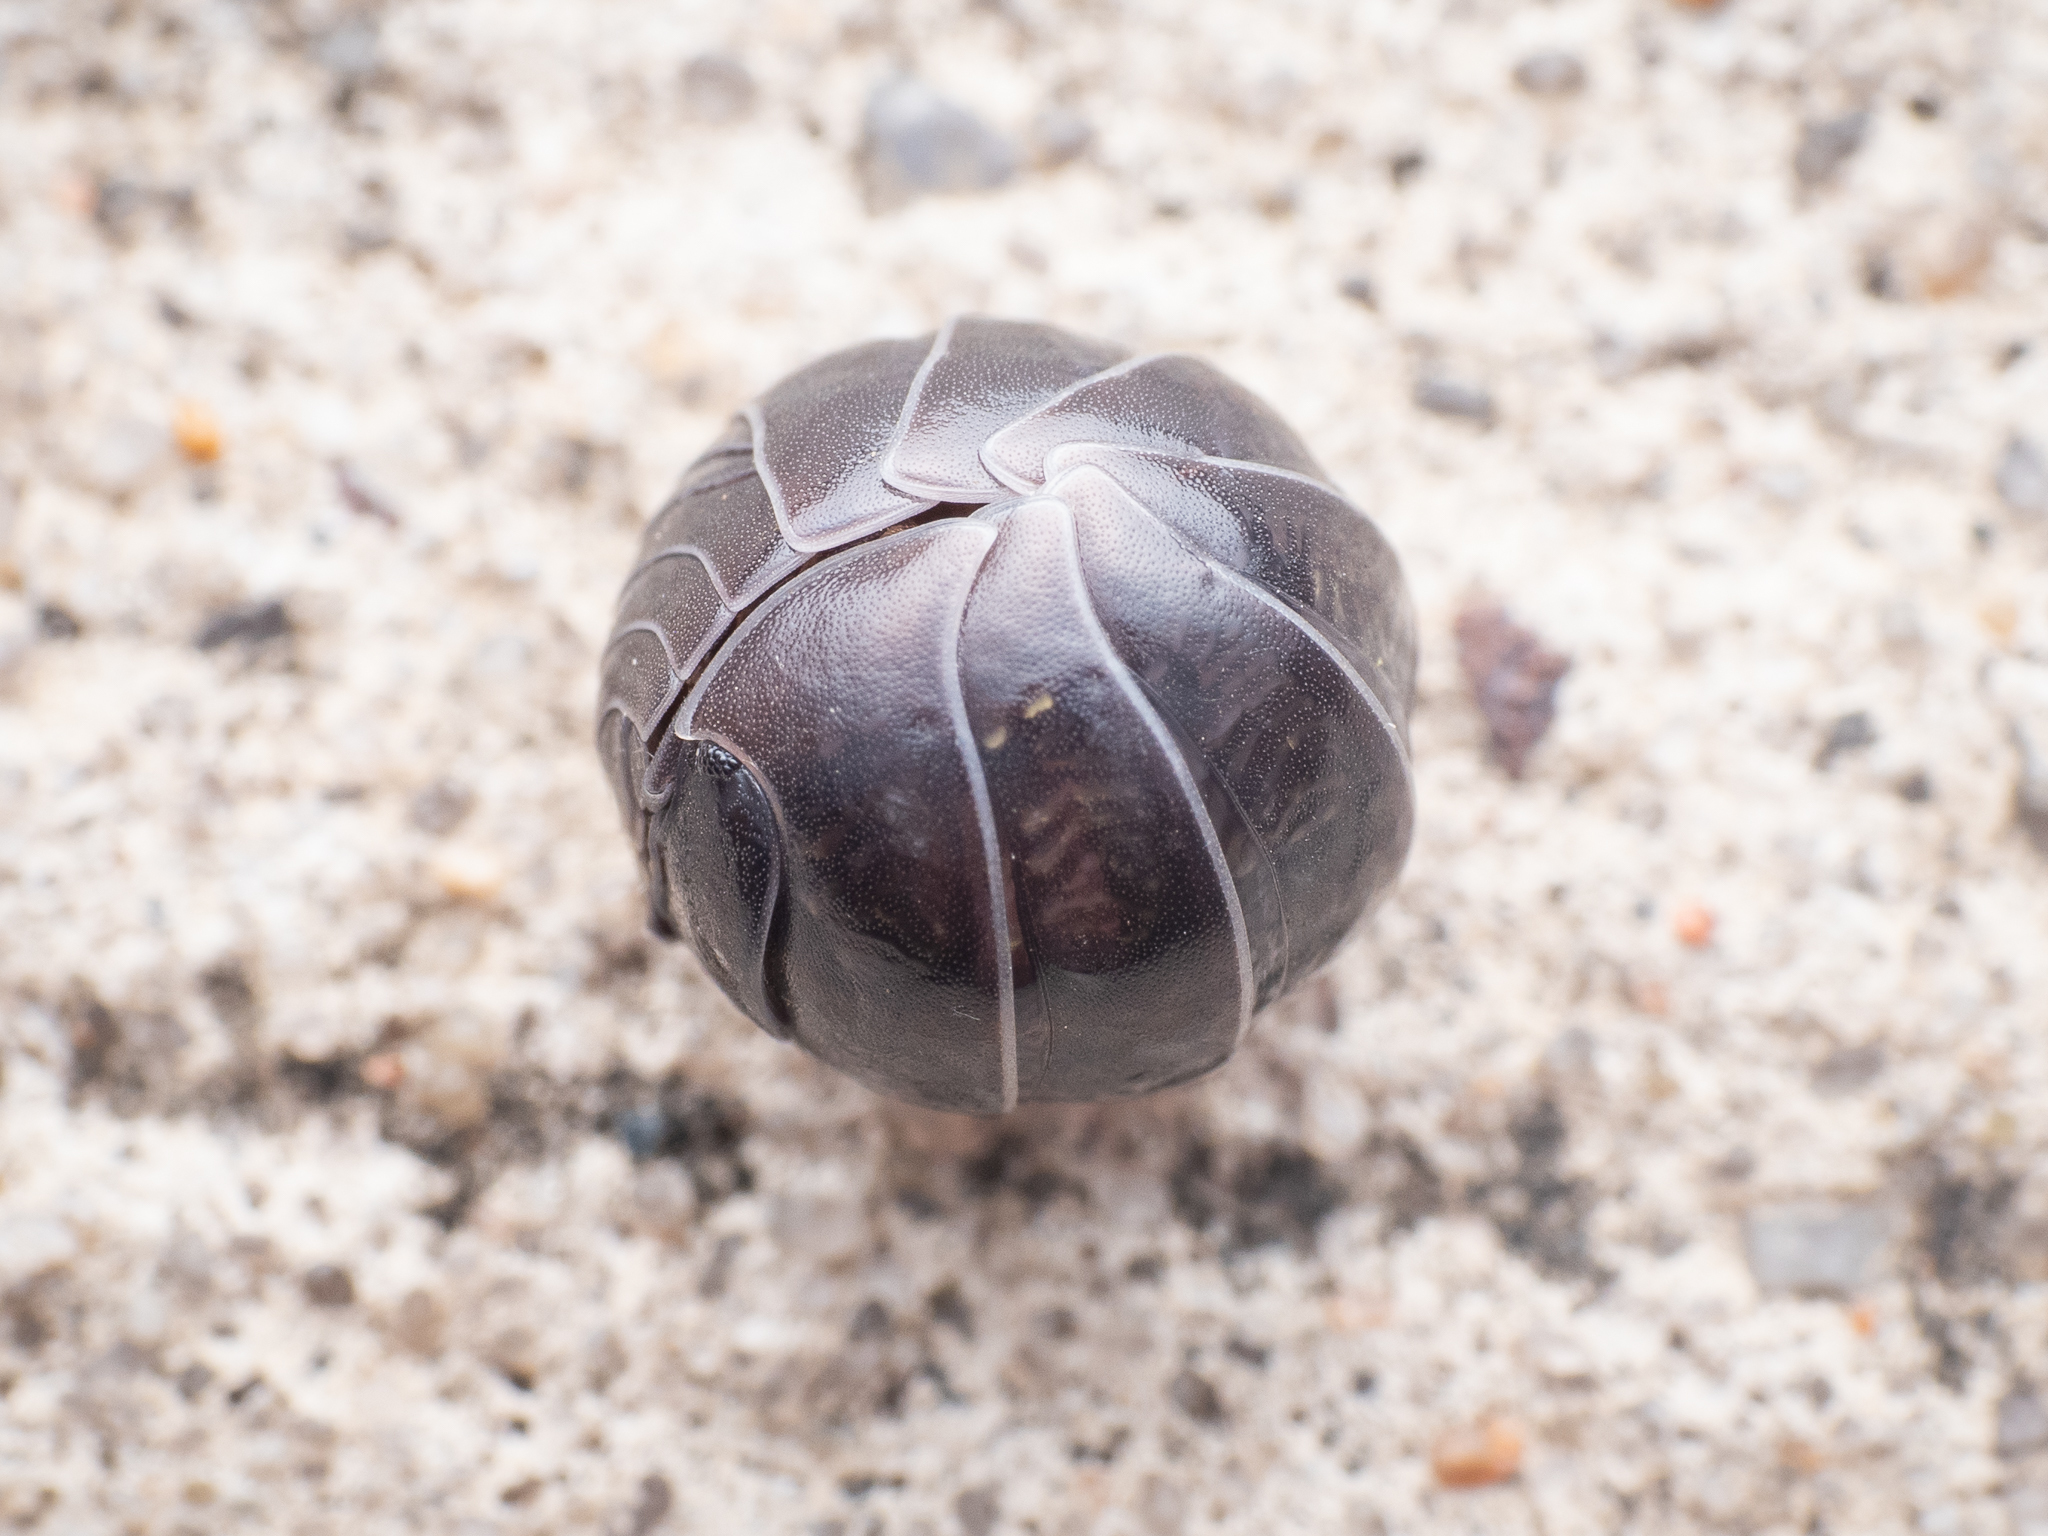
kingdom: Animalia
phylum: Arthropoda
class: Malacostraca
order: Isopoda
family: Armadillidiidae
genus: Armadillidium
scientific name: Armadillidium vulgare
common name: Common pill woodlouse
